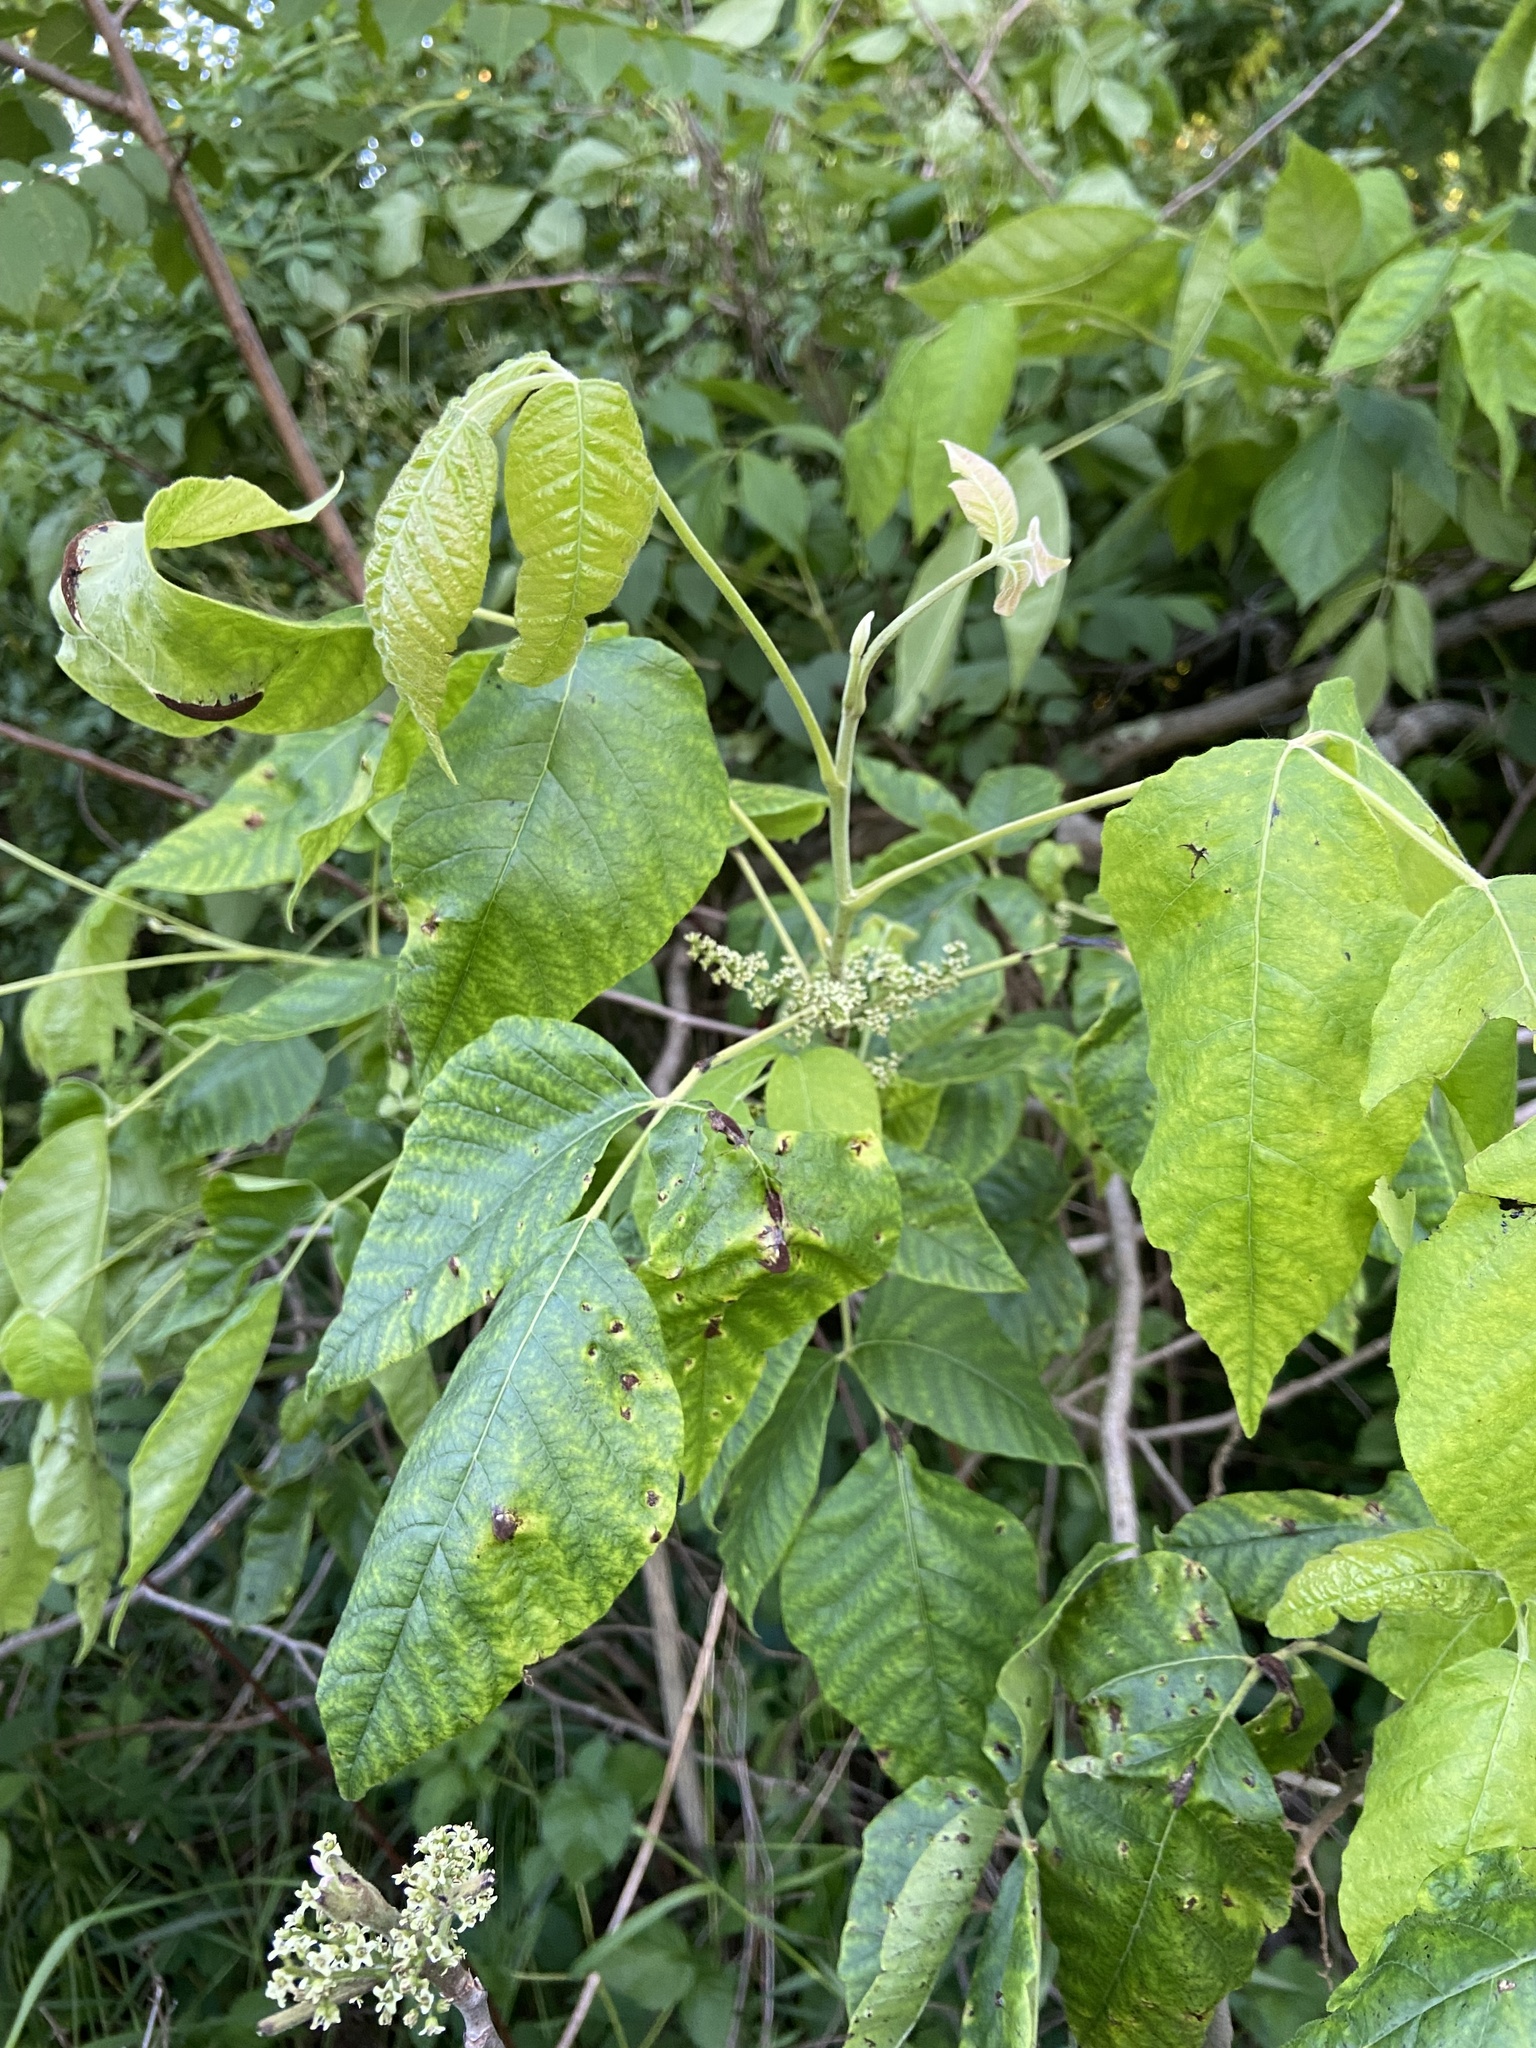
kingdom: Plantae
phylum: Tracheophyta
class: Magnoliopsida
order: Sapindales
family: Anacardiaceae
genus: Toxicodendron
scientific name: Toxicodendron radicans
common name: Poison ivy
